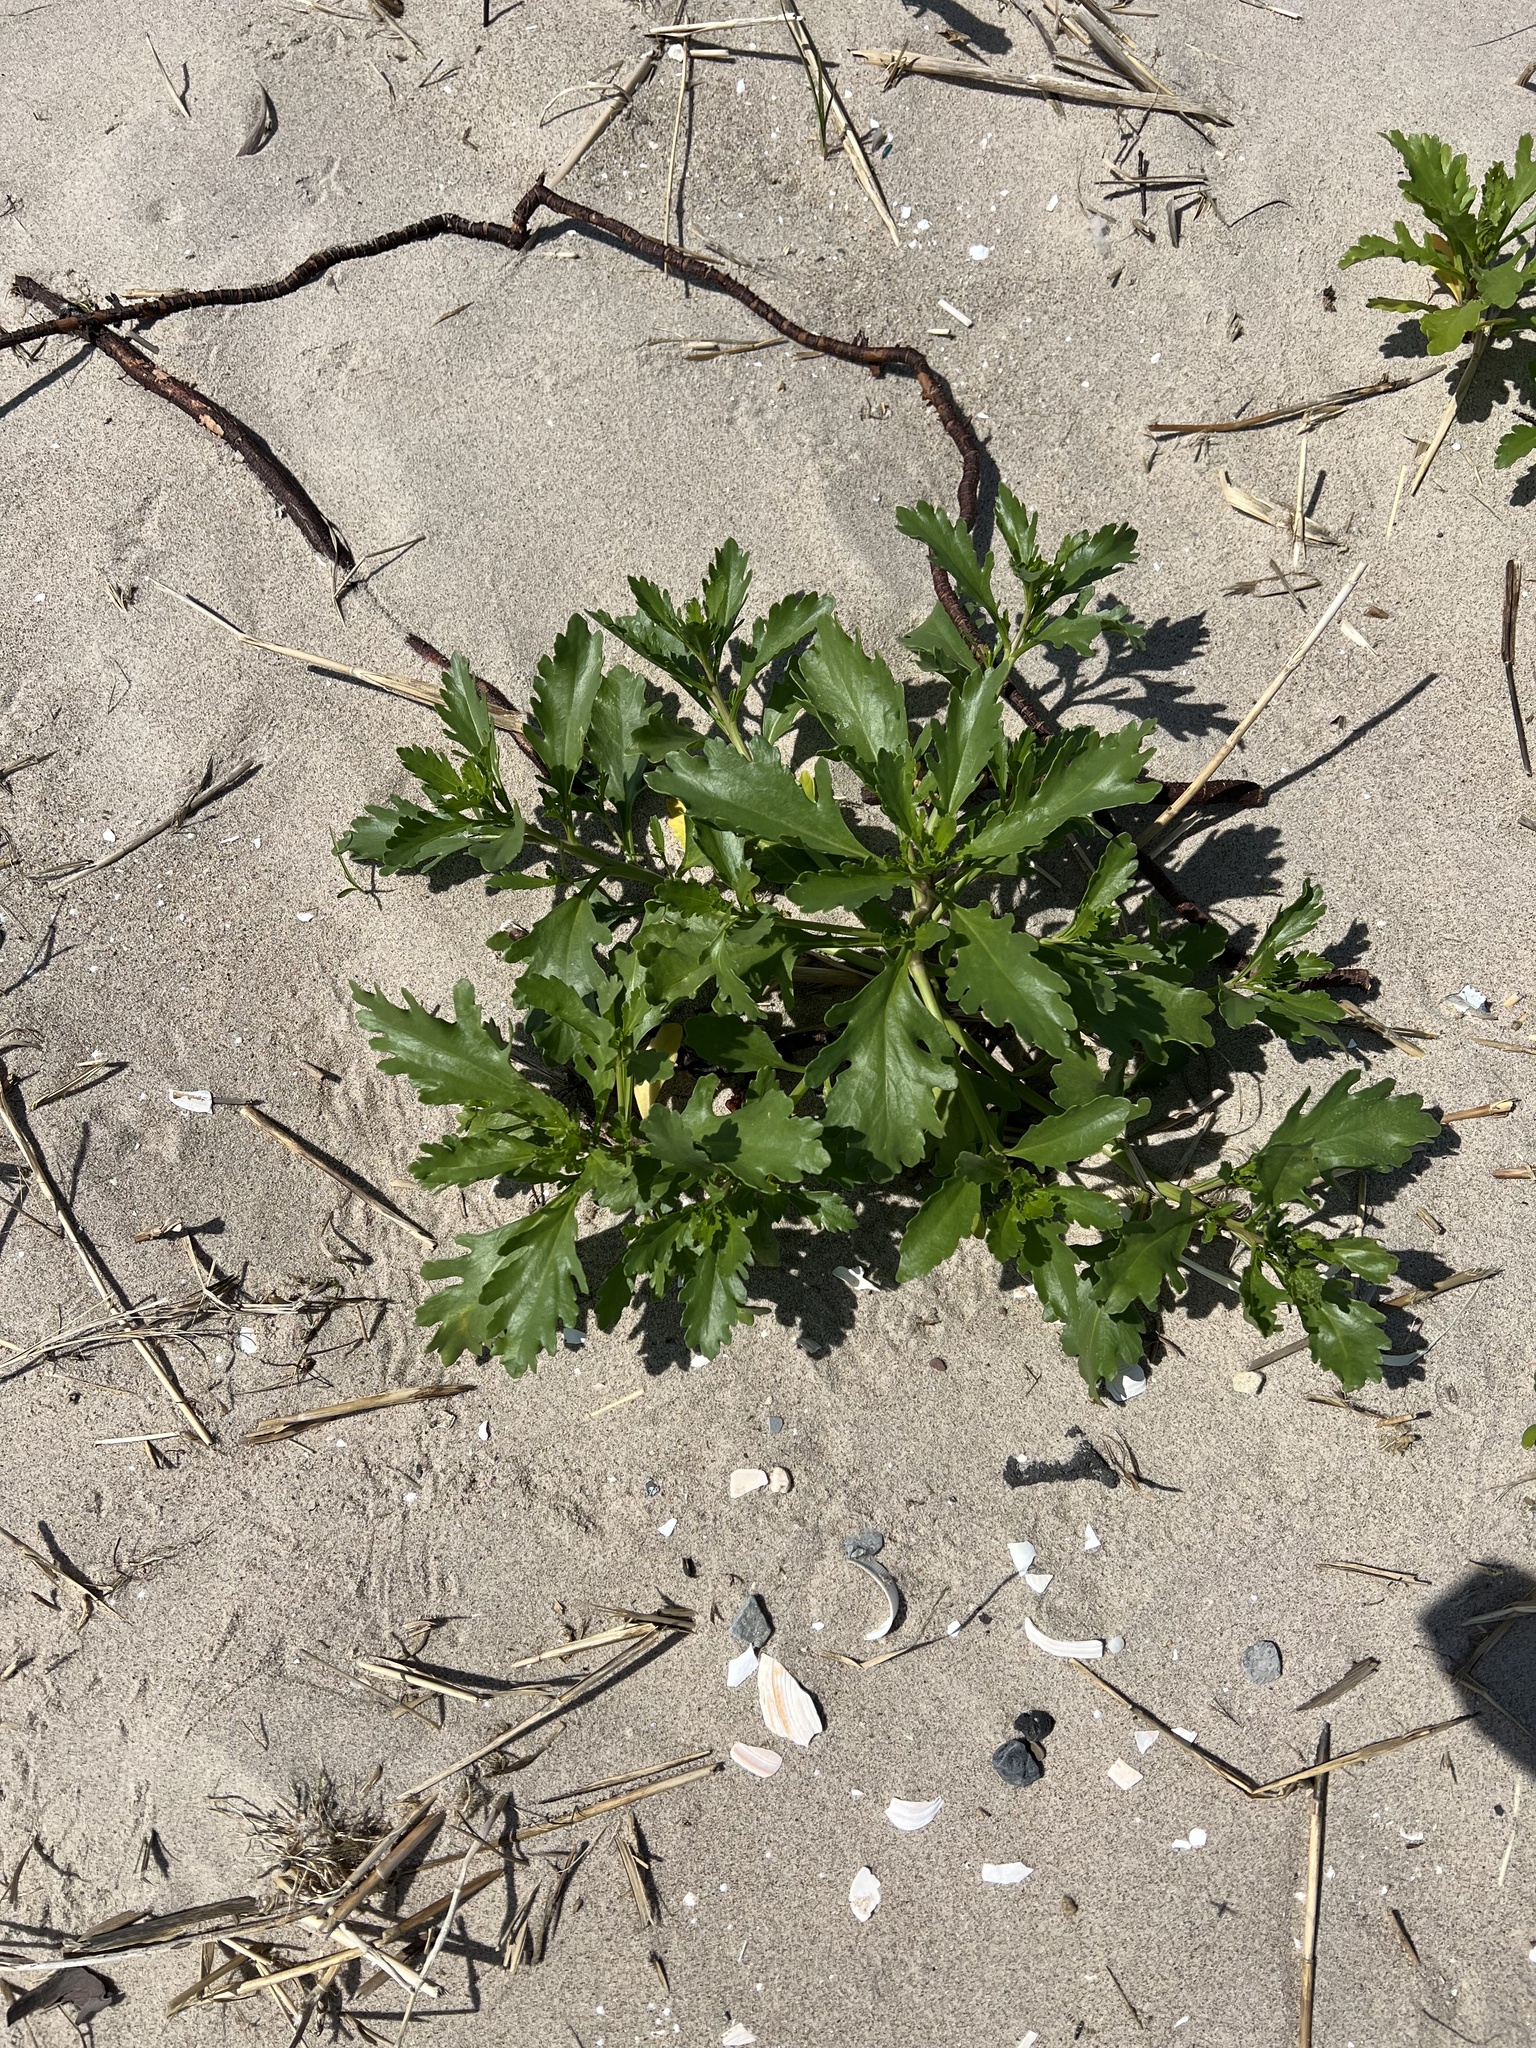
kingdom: Plantae
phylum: Tracheophyta
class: Magnoliopsida
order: Brassicales
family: Brassicaceae
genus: Cakile
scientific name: Cakile edentula
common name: American sea rocket
